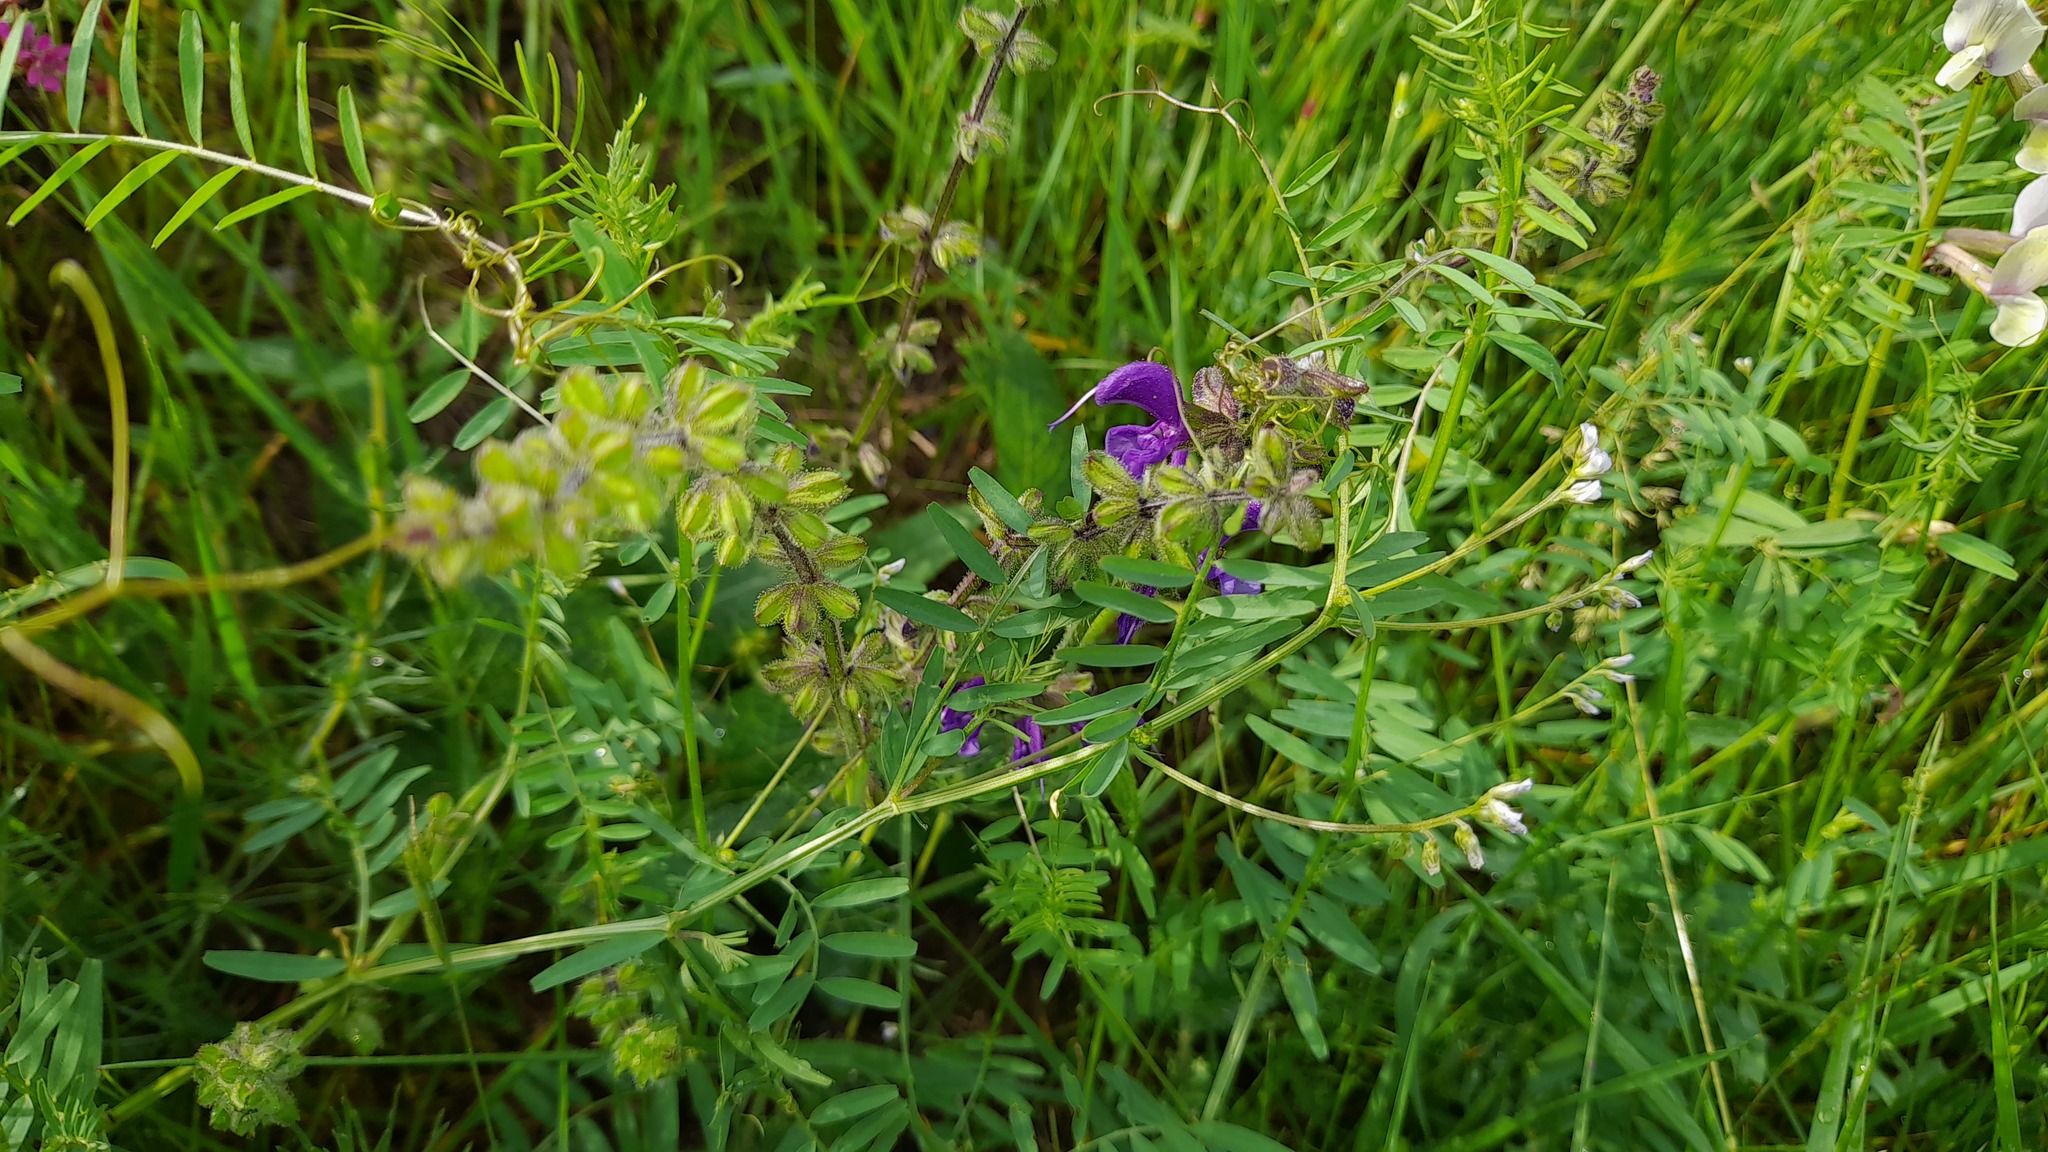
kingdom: Plantae
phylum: Tracheophyta
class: Magnoliopsida
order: Fabales
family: Fabaceae
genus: Vicia
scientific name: Vicia hirsuta
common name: Tiny vetch
